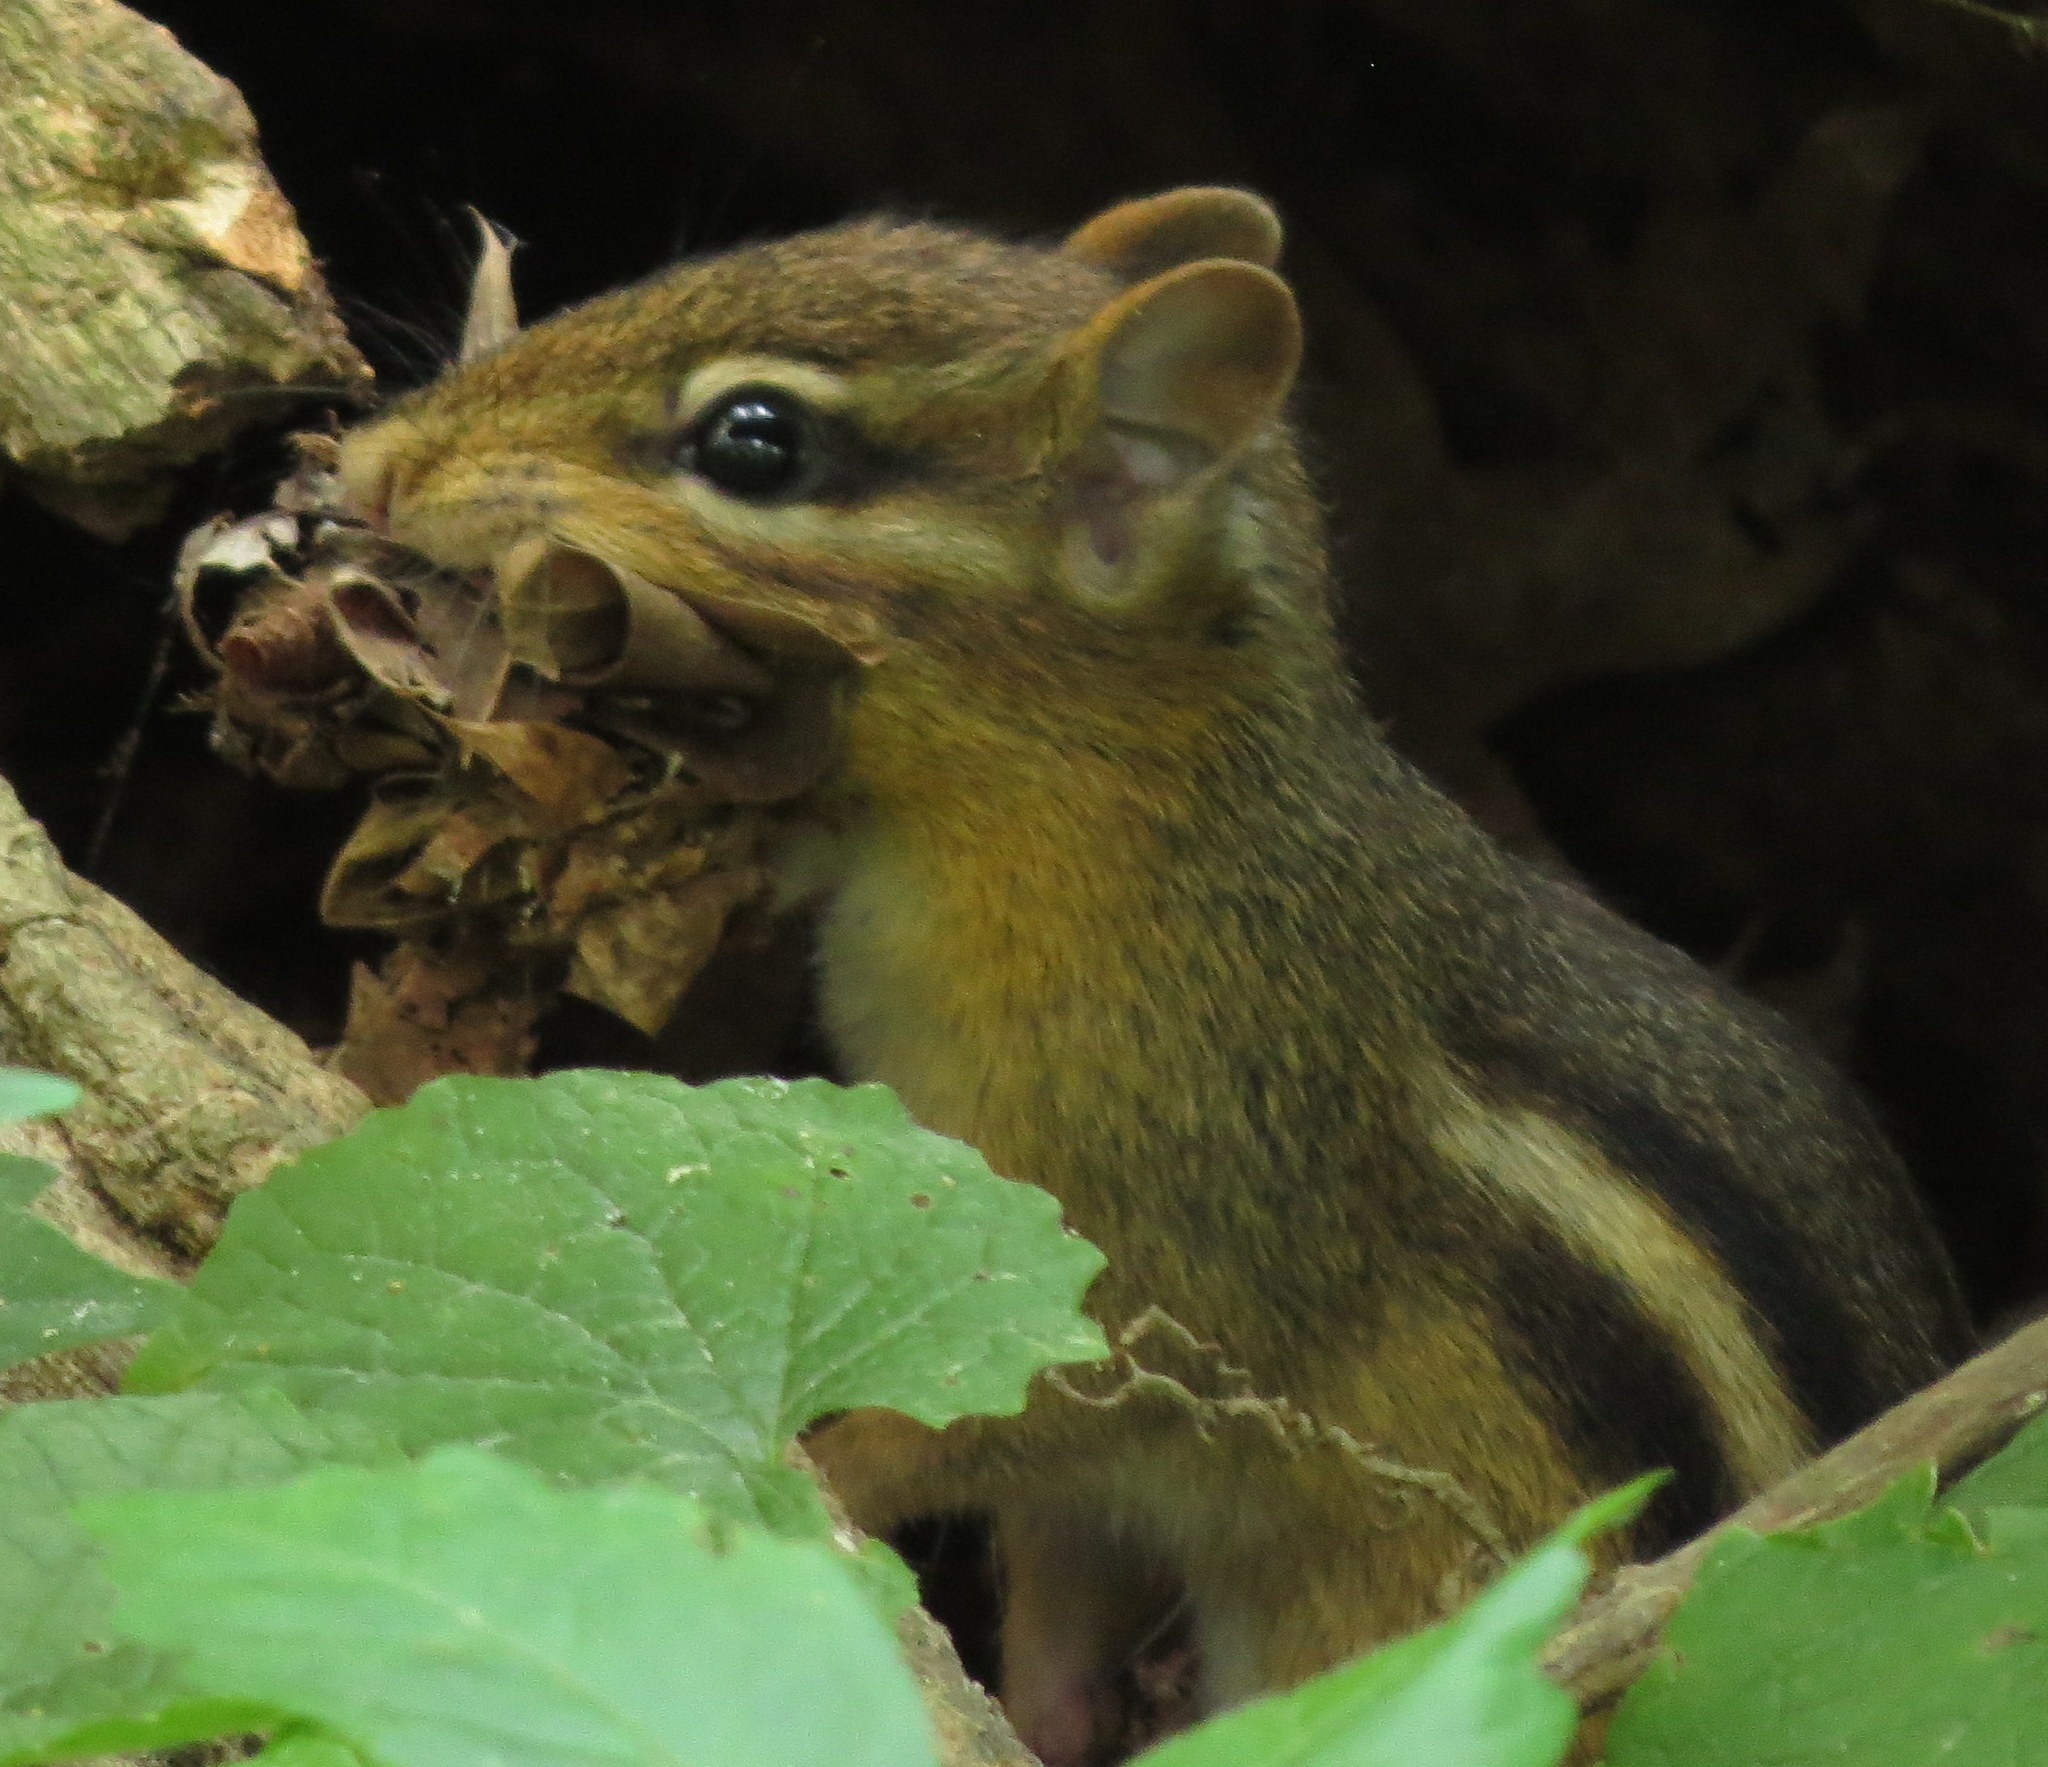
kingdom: Animalia
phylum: Chordata
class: Mammalia
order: Rodentia
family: Sciuridae
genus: Tamias
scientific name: Tamias striatus
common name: Eastern chipmunk
